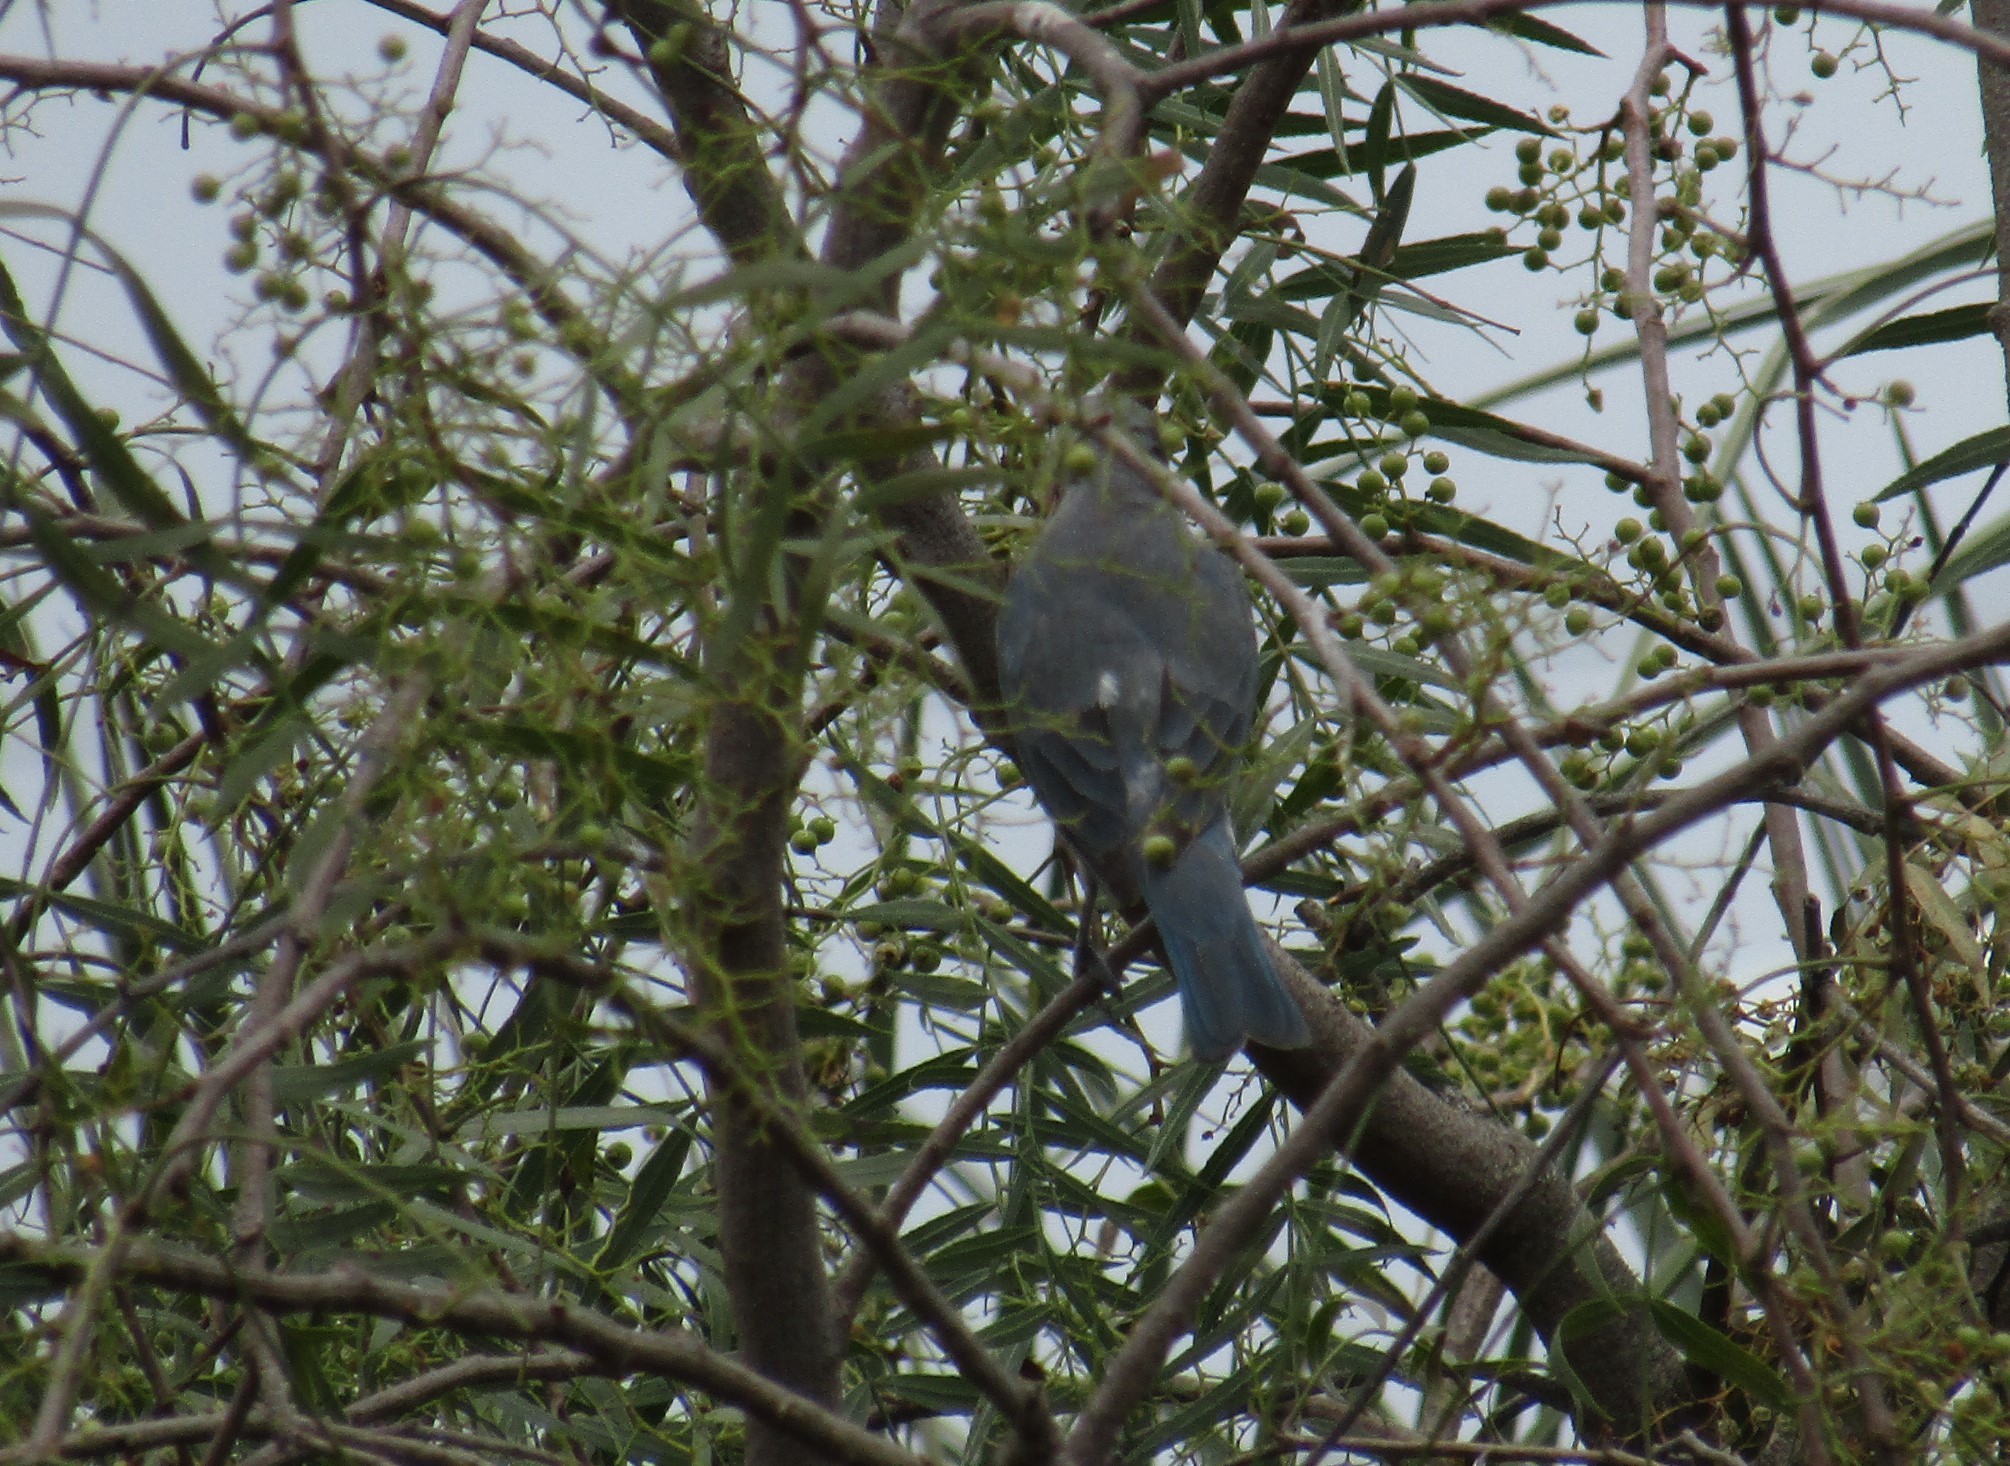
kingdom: Animalia
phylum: Chordata
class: Aves
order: Passeriformes
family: Thraupidae
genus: Thraupis
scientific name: Thraupis sayaca
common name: Sayaca tanager
